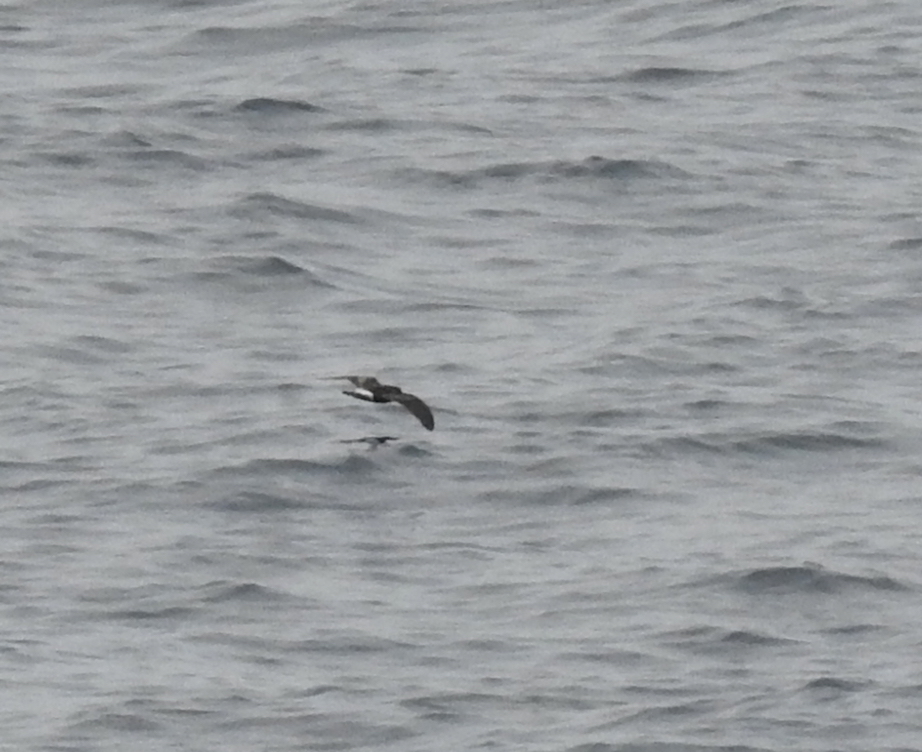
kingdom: Animalia
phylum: Chordata
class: Aves
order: Procellariiformes
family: Hydrobatidae
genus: Oceanodroma
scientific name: Oceanodroma leucorhoa
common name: Leach's storm-petrel
